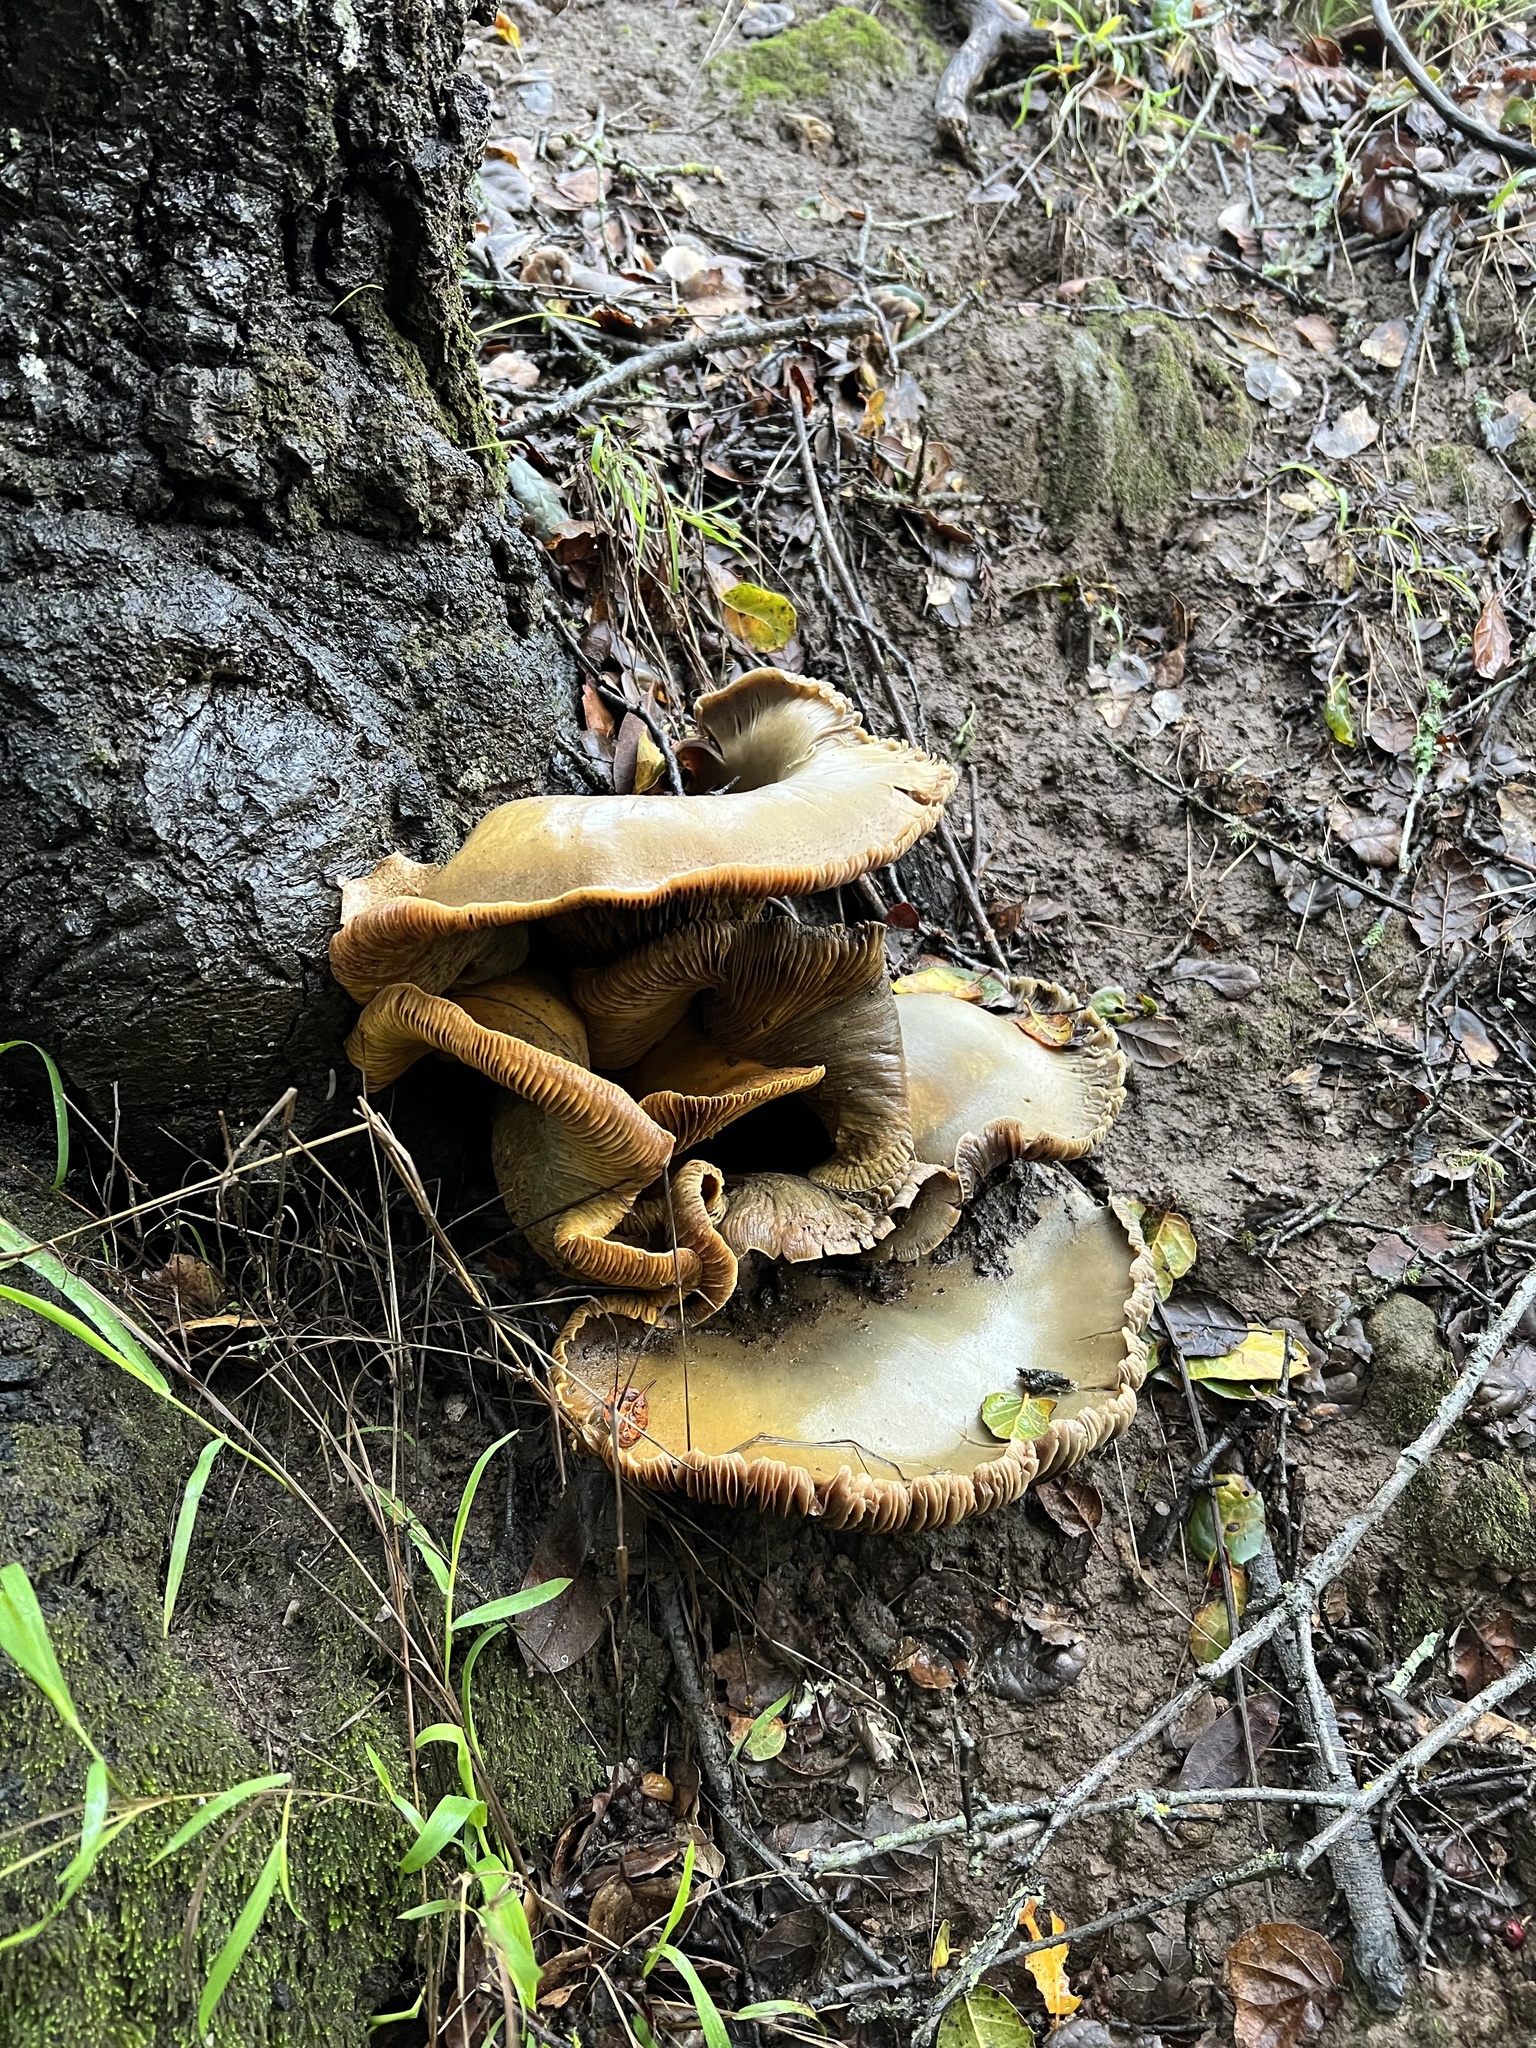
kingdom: Fungi
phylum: Basidiomycota
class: Agaricomycetes
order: Agaricales
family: Omphalotaceae
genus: Omphalotus
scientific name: Omphalotus olivascens
